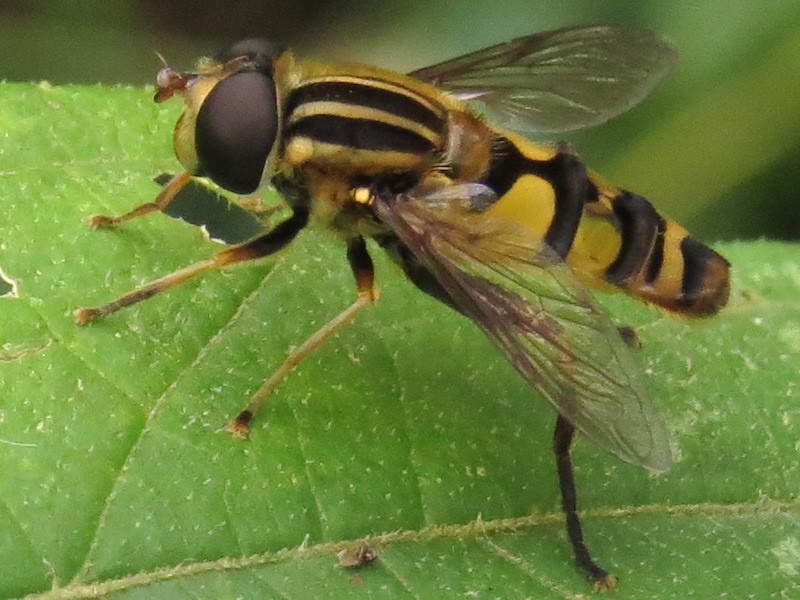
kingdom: Animalia
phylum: Arthropoda
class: Insecta
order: Diptera
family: Syrphidae
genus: Helophilus
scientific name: Helophilus fasciatus
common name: Narrow-headed marsh fly
